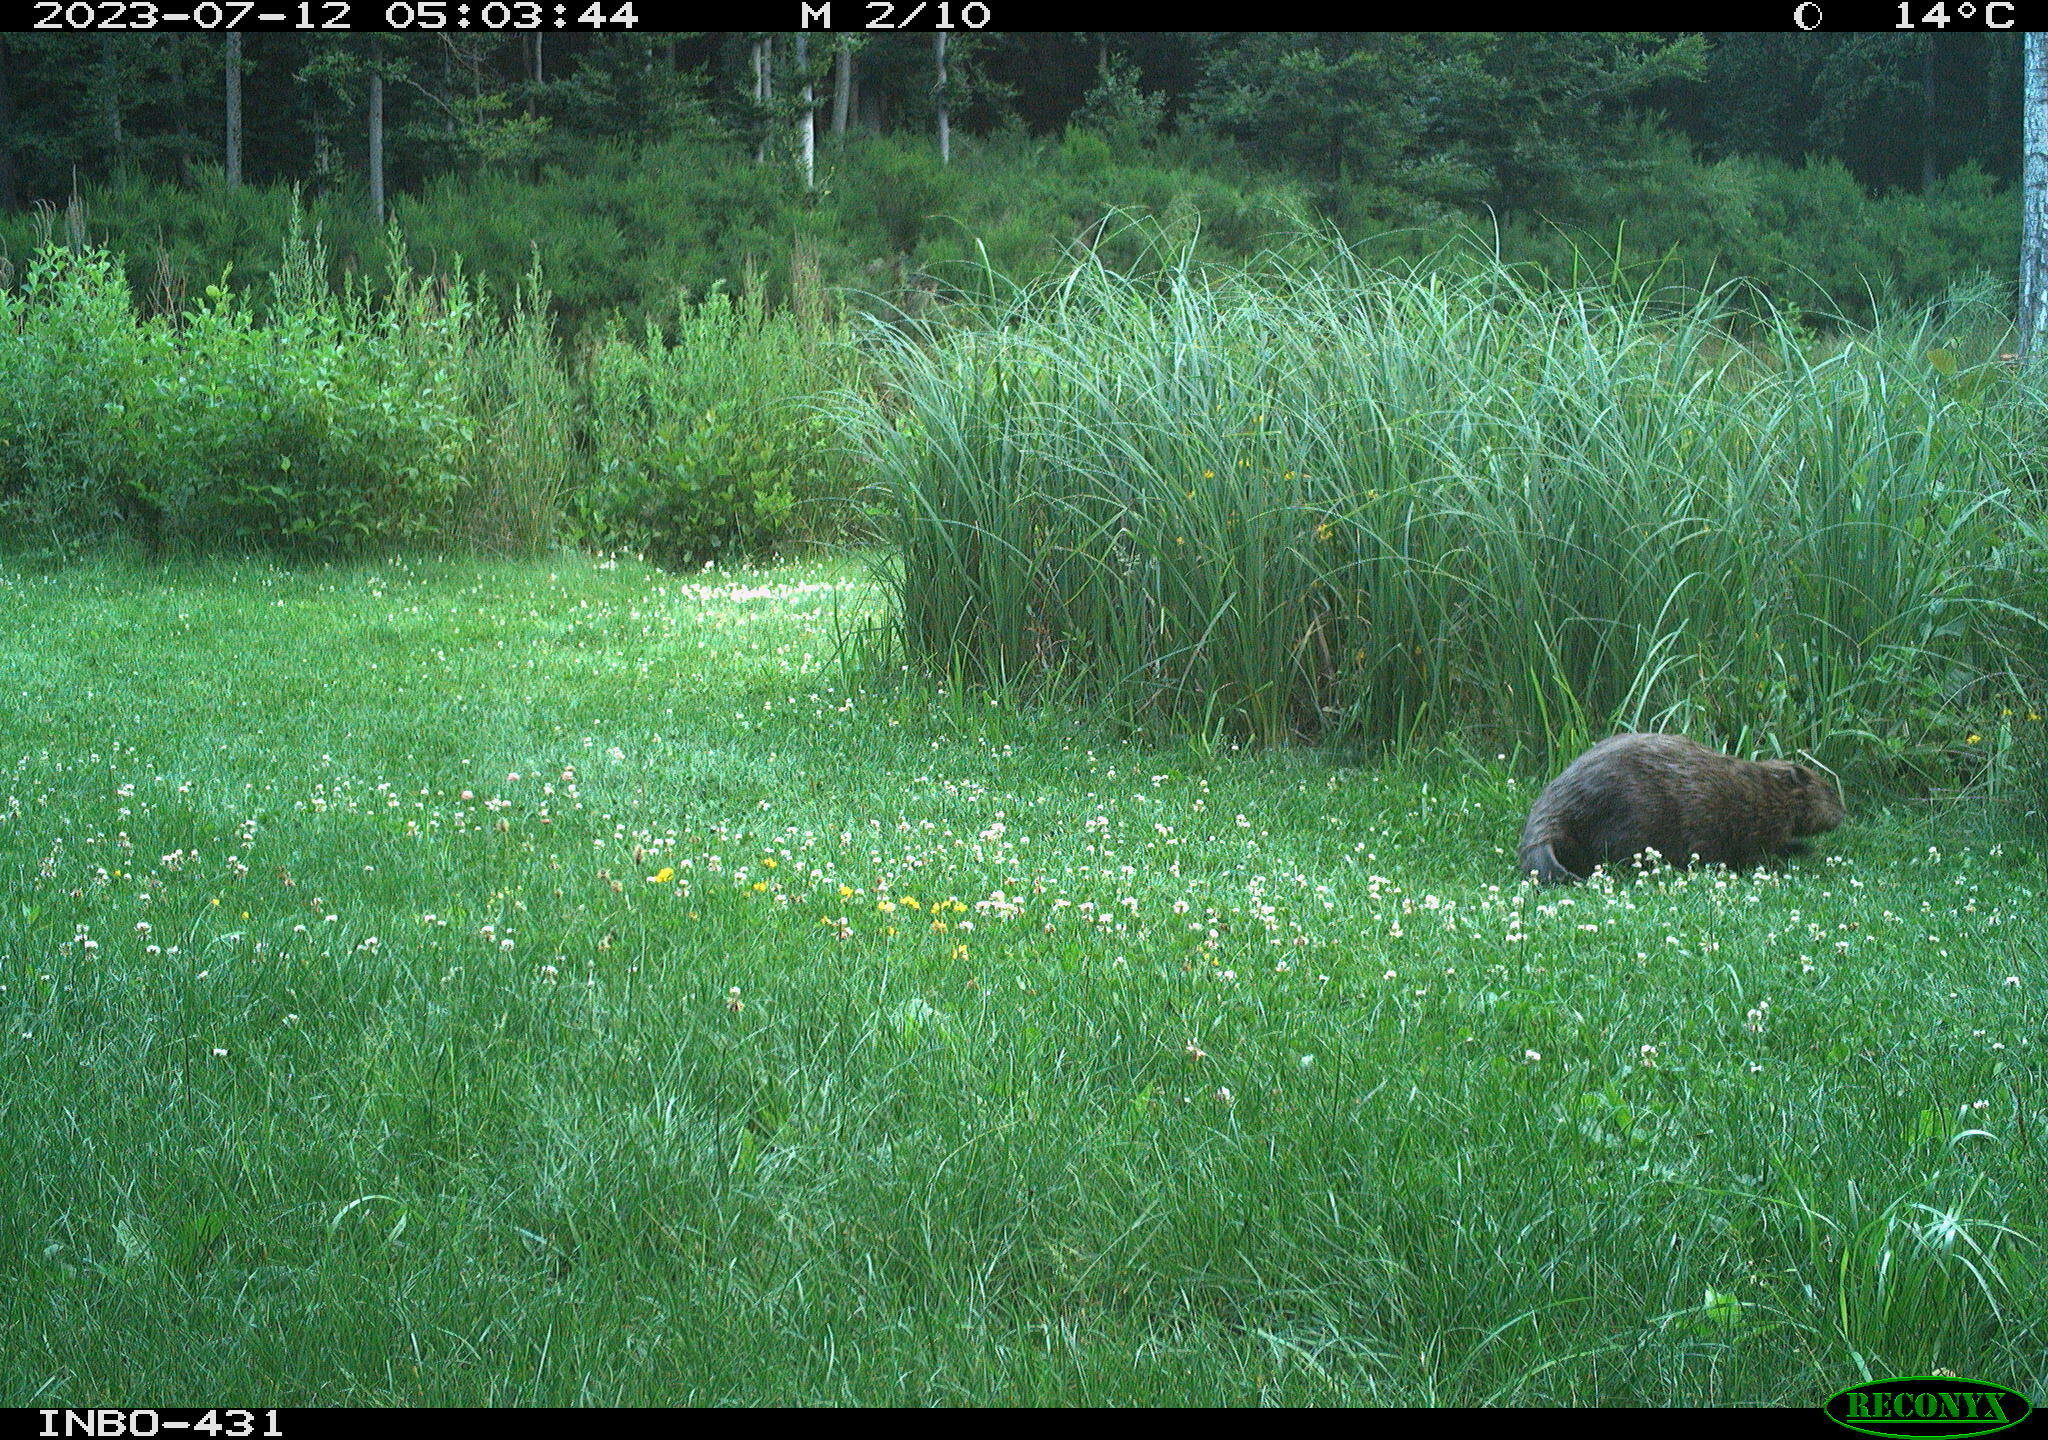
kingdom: Animalia
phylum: Chordata
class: Mammalia
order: Rodentia
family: Castoridae
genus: Castor
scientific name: Castor fiber
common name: Eurasian beaver
